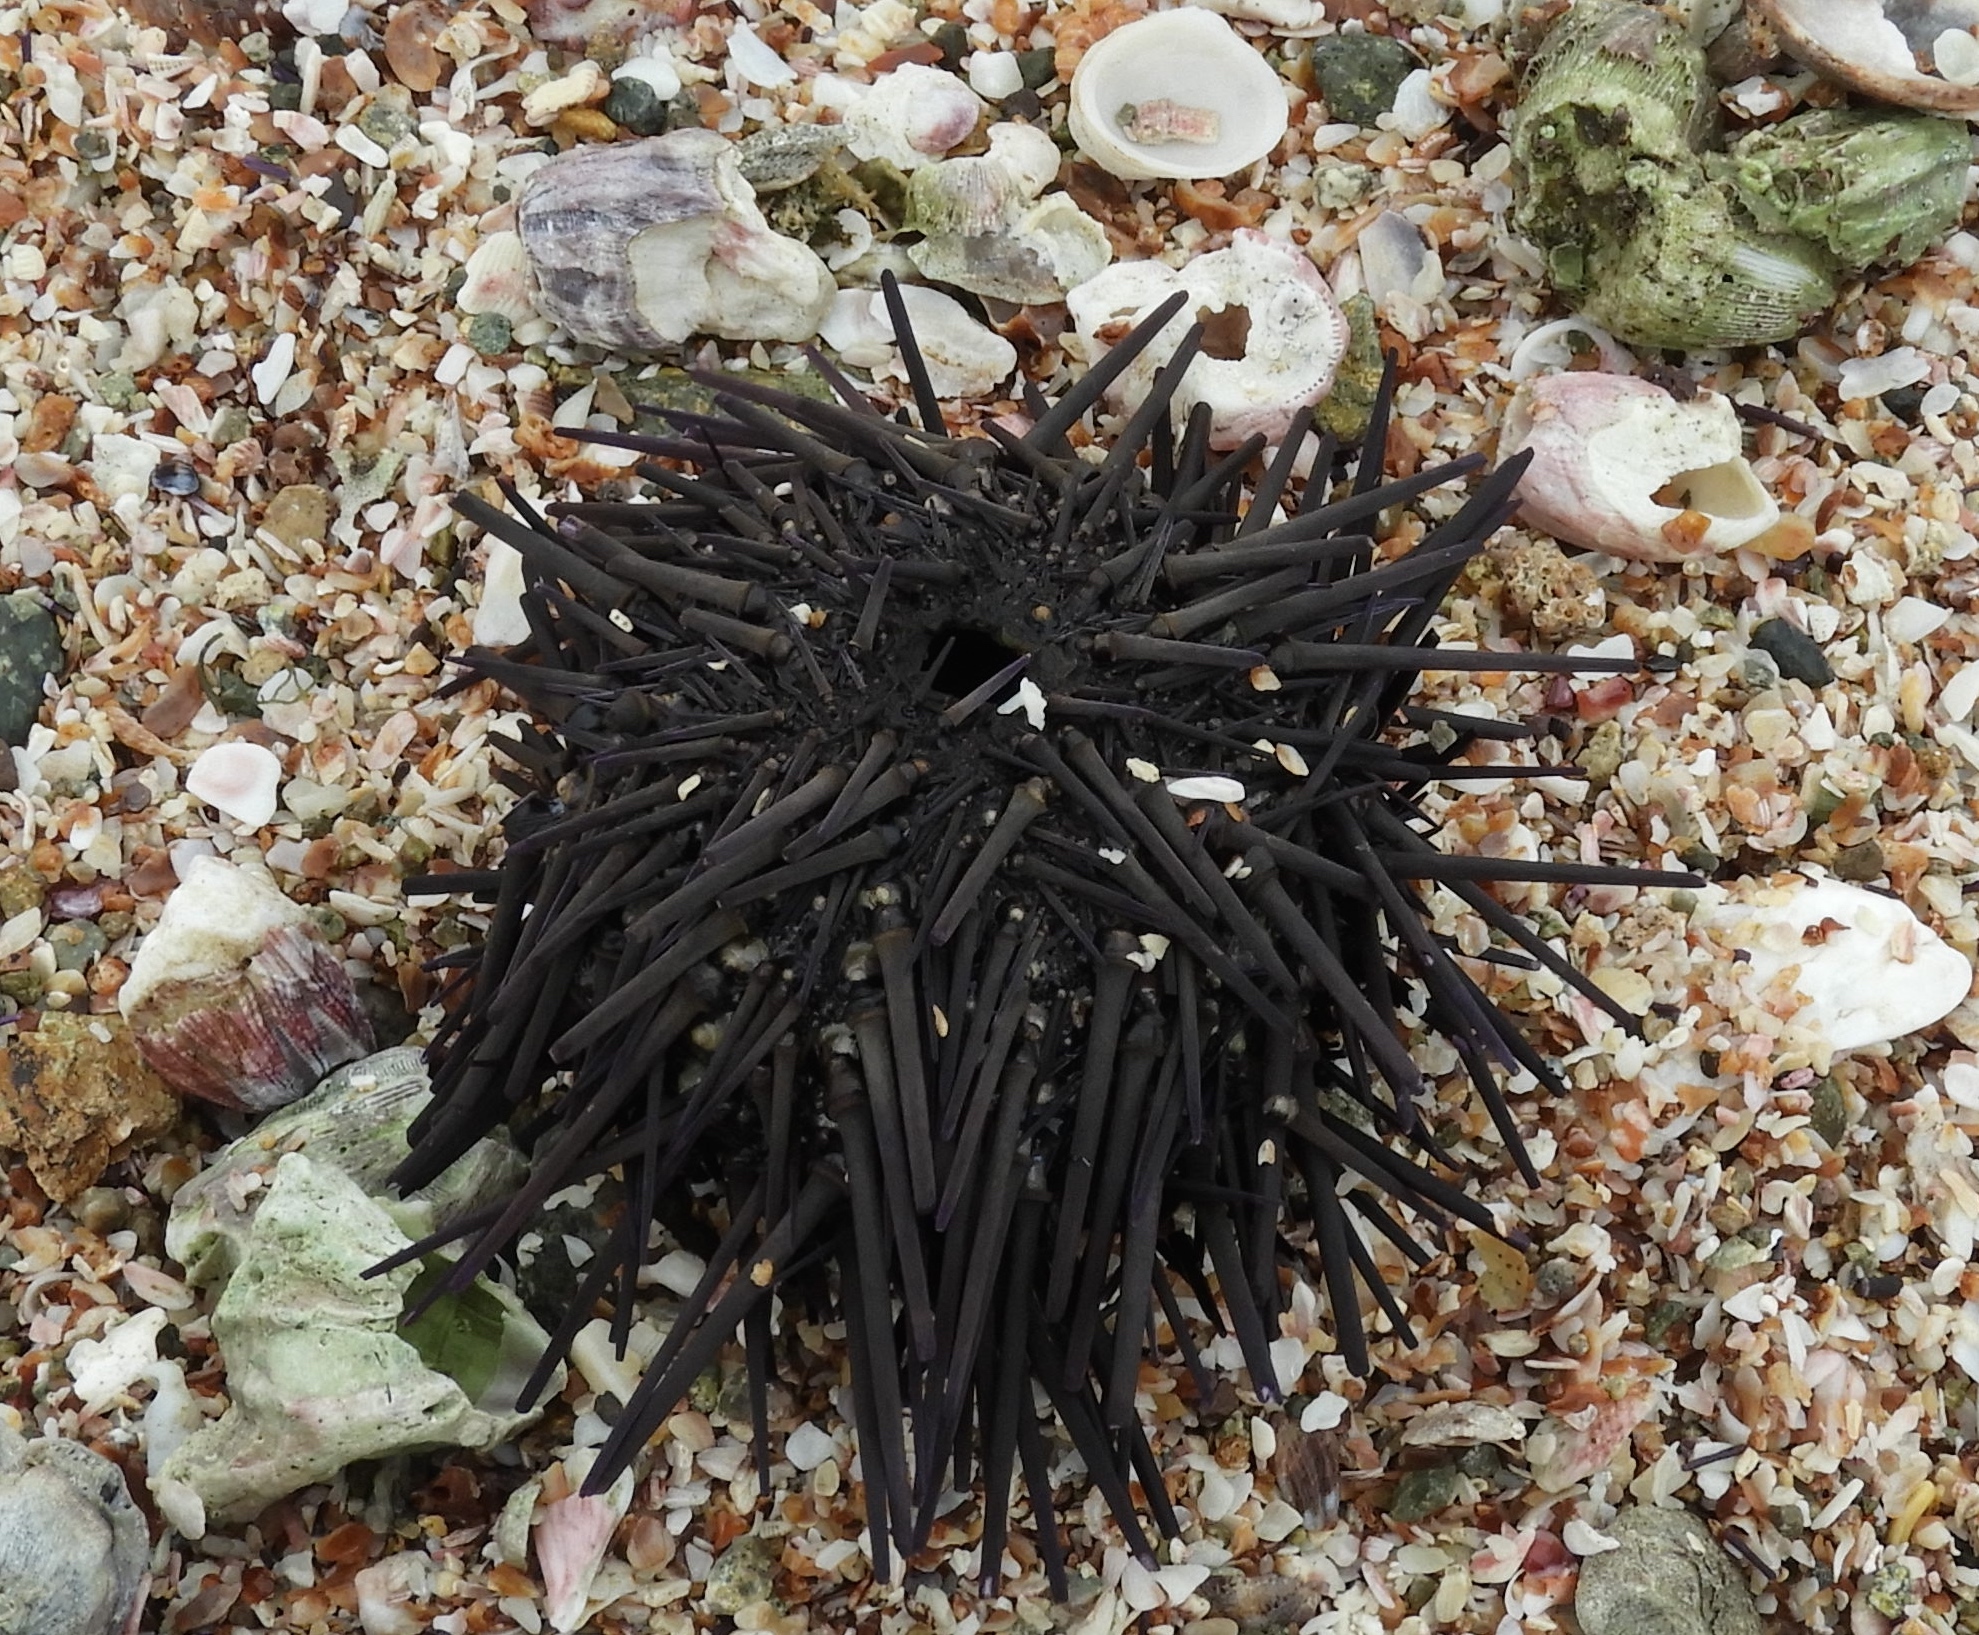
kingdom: Animalia
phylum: Echinodermata
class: Echinoidea
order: Camarodonta
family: Echinometridae
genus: Echinometra
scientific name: Echinometra vanbrunti
